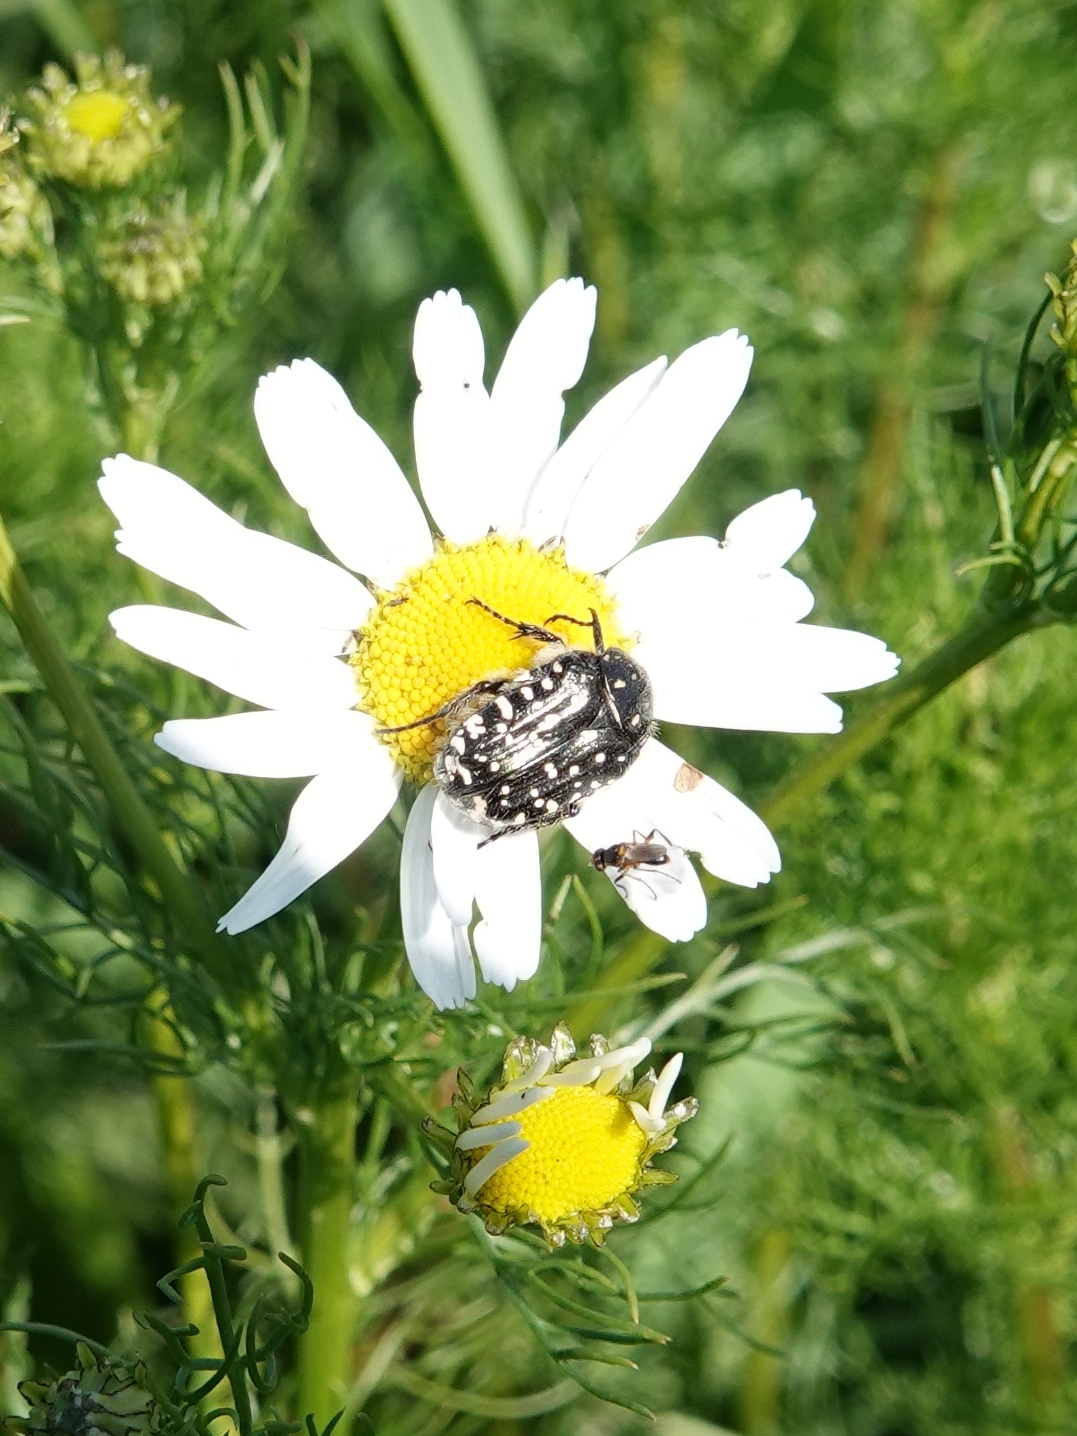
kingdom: Animalia
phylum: Arthropoda
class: Insecta
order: Coleoptera
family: Scarabaeidae
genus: Oxythyrea
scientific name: Oxythyrea funesta
